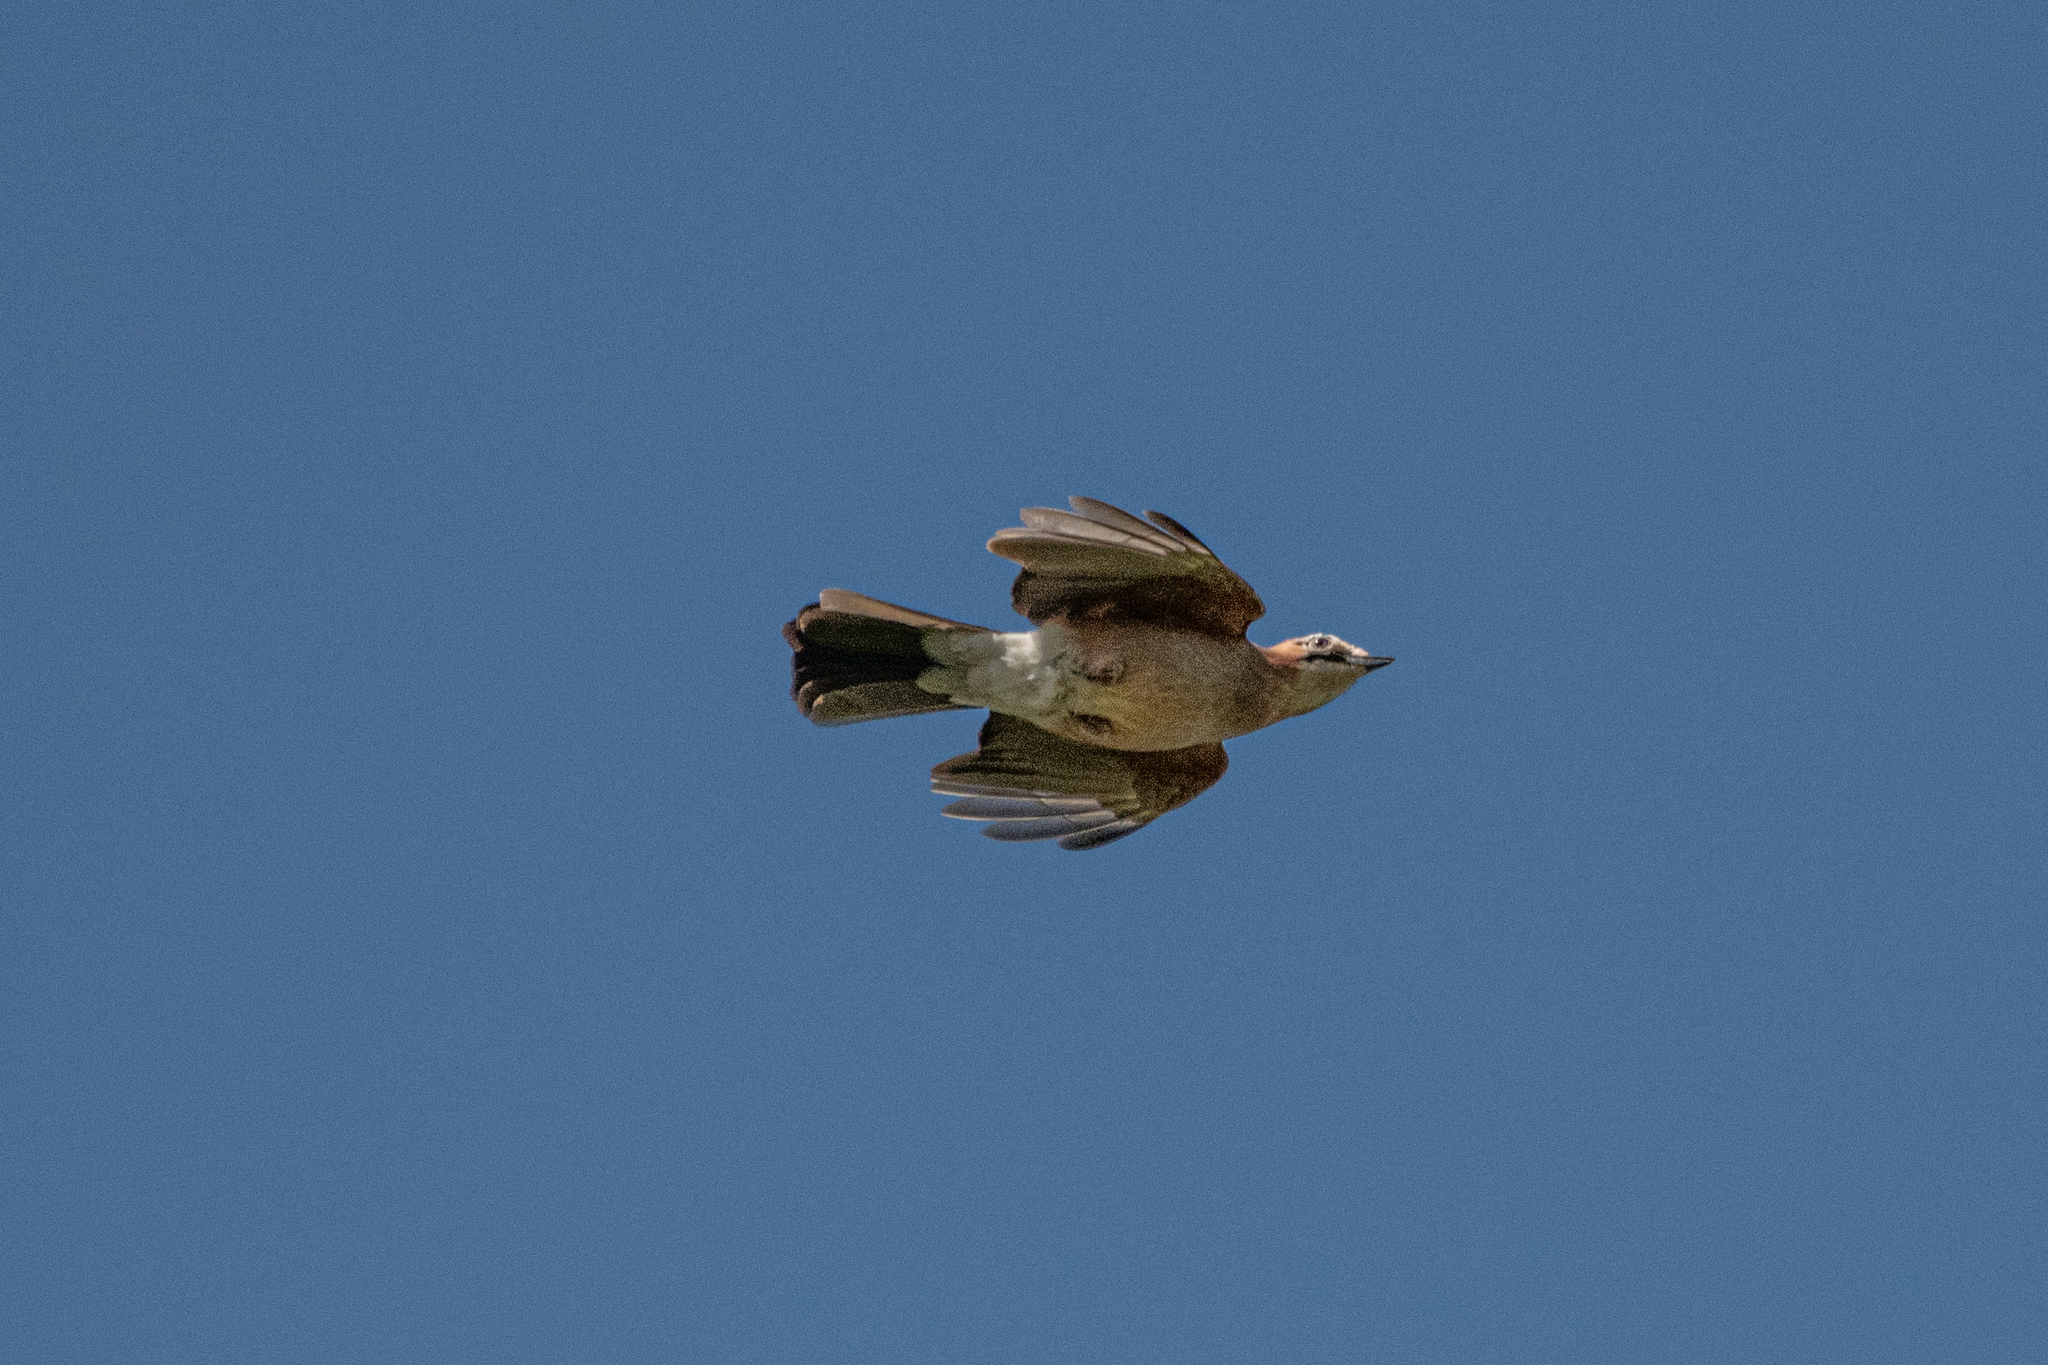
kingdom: Animalia
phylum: Chordata
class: Aves
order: Passeriformes
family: Corvidae
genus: Garrulus
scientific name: Garrulus glandarius
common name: Eurasian jay
